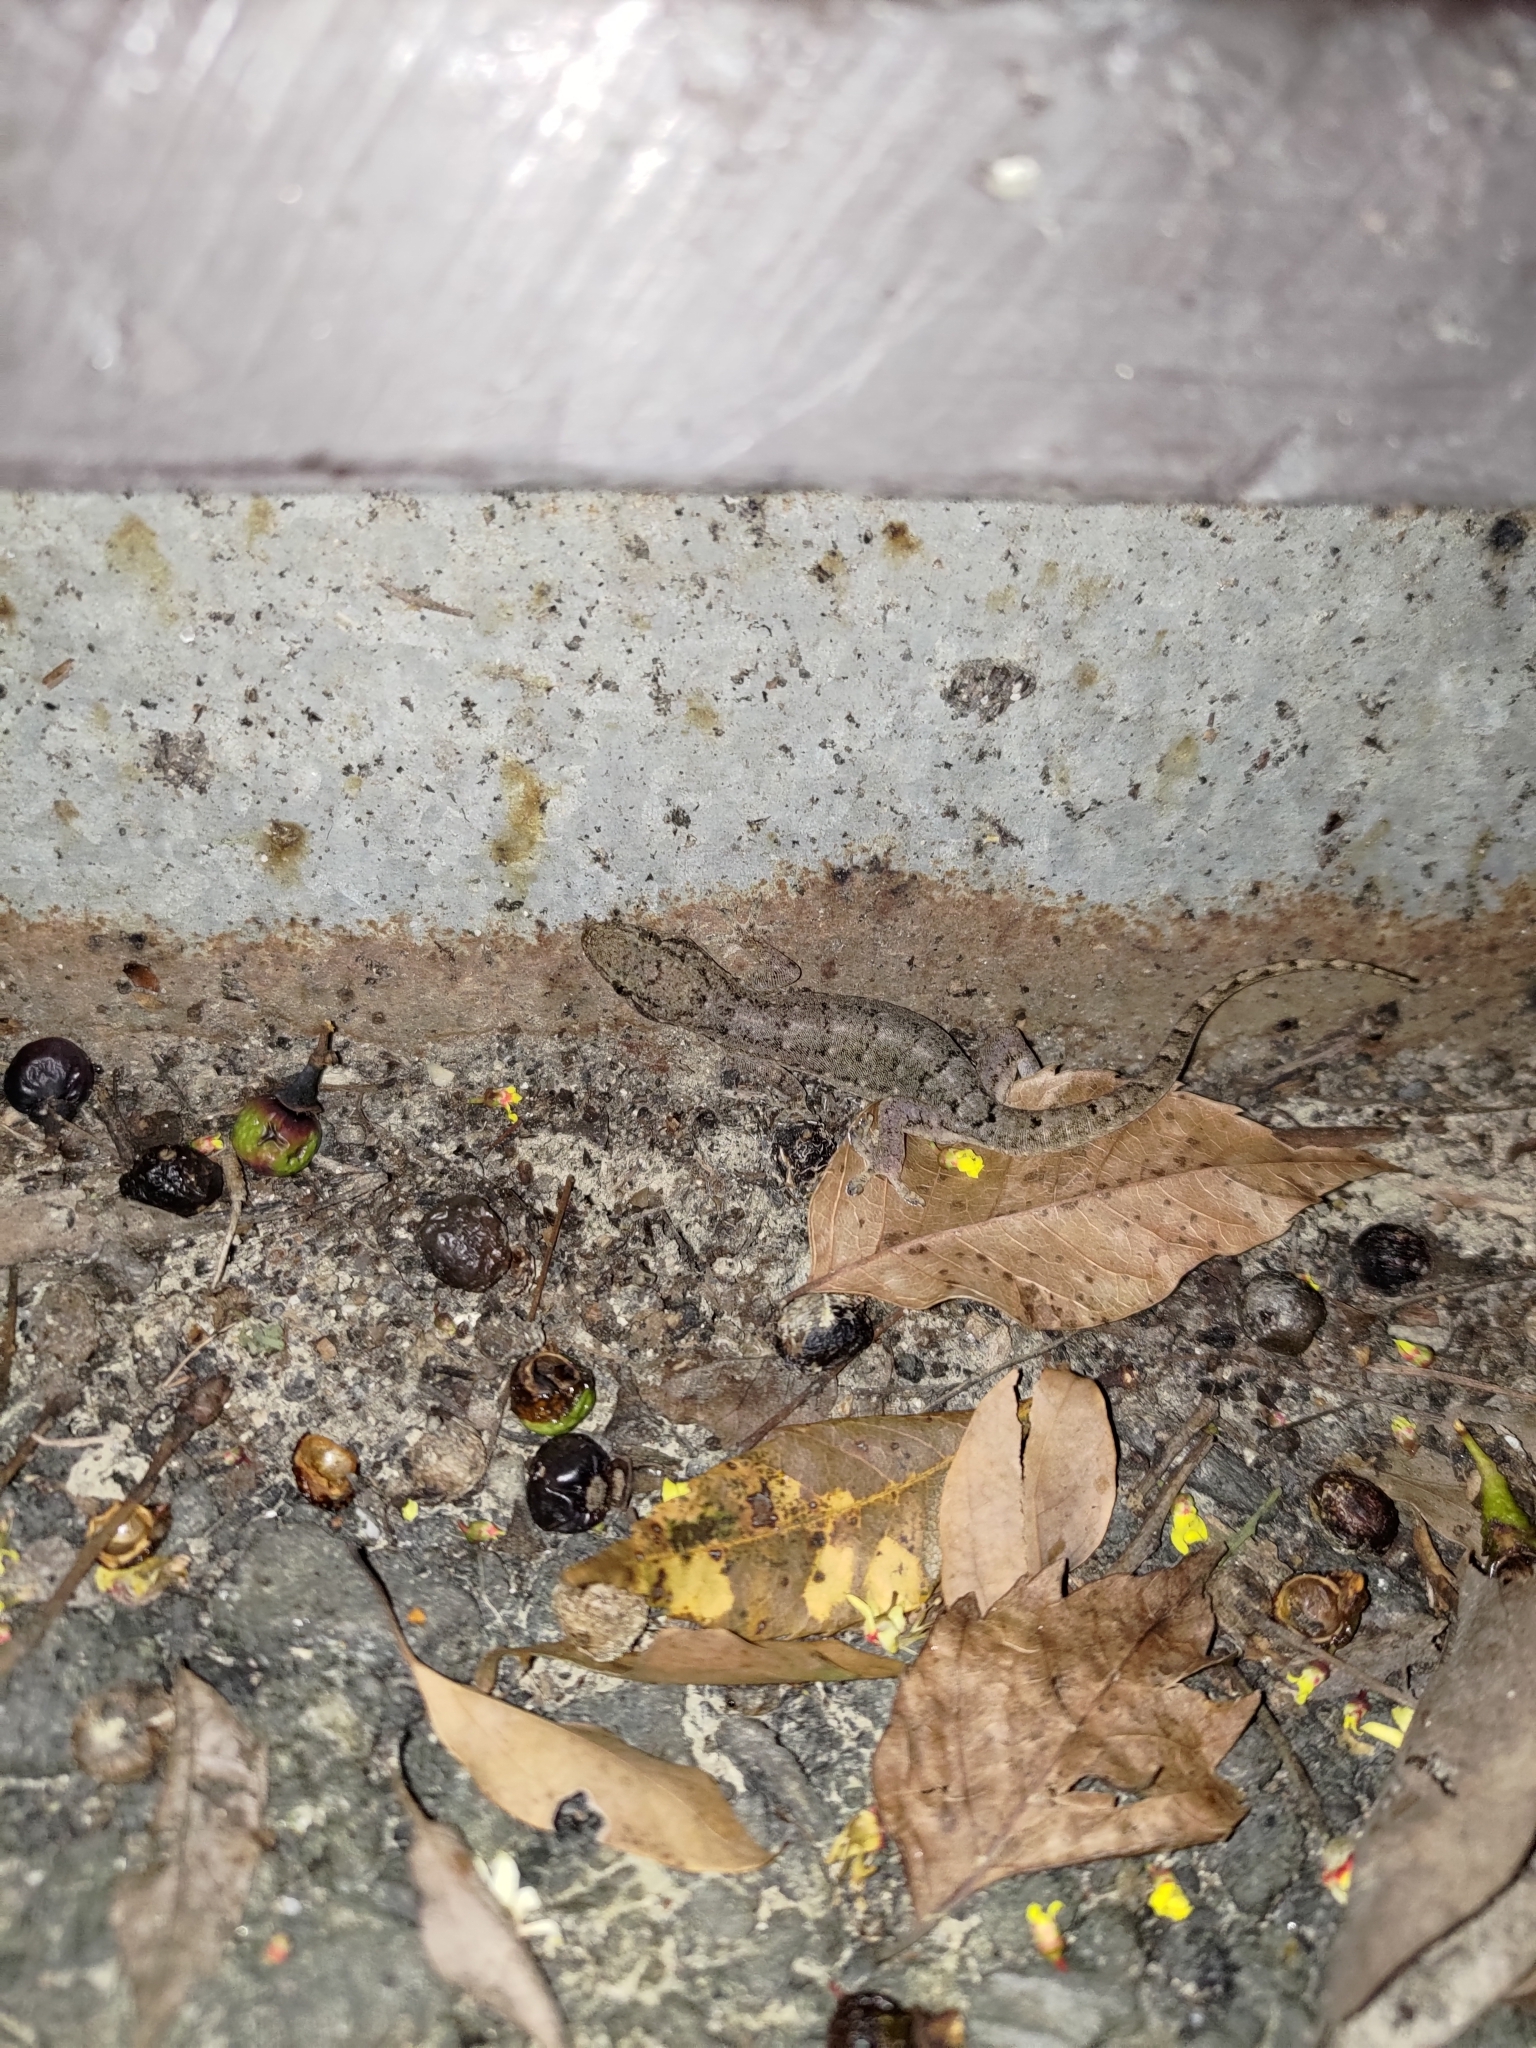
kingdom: Animalia
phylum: Chordata
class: Squamata
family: Gekkonidae
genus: Hemidactylus
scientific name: Hemidactylus frenatus
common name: Common house gecko
